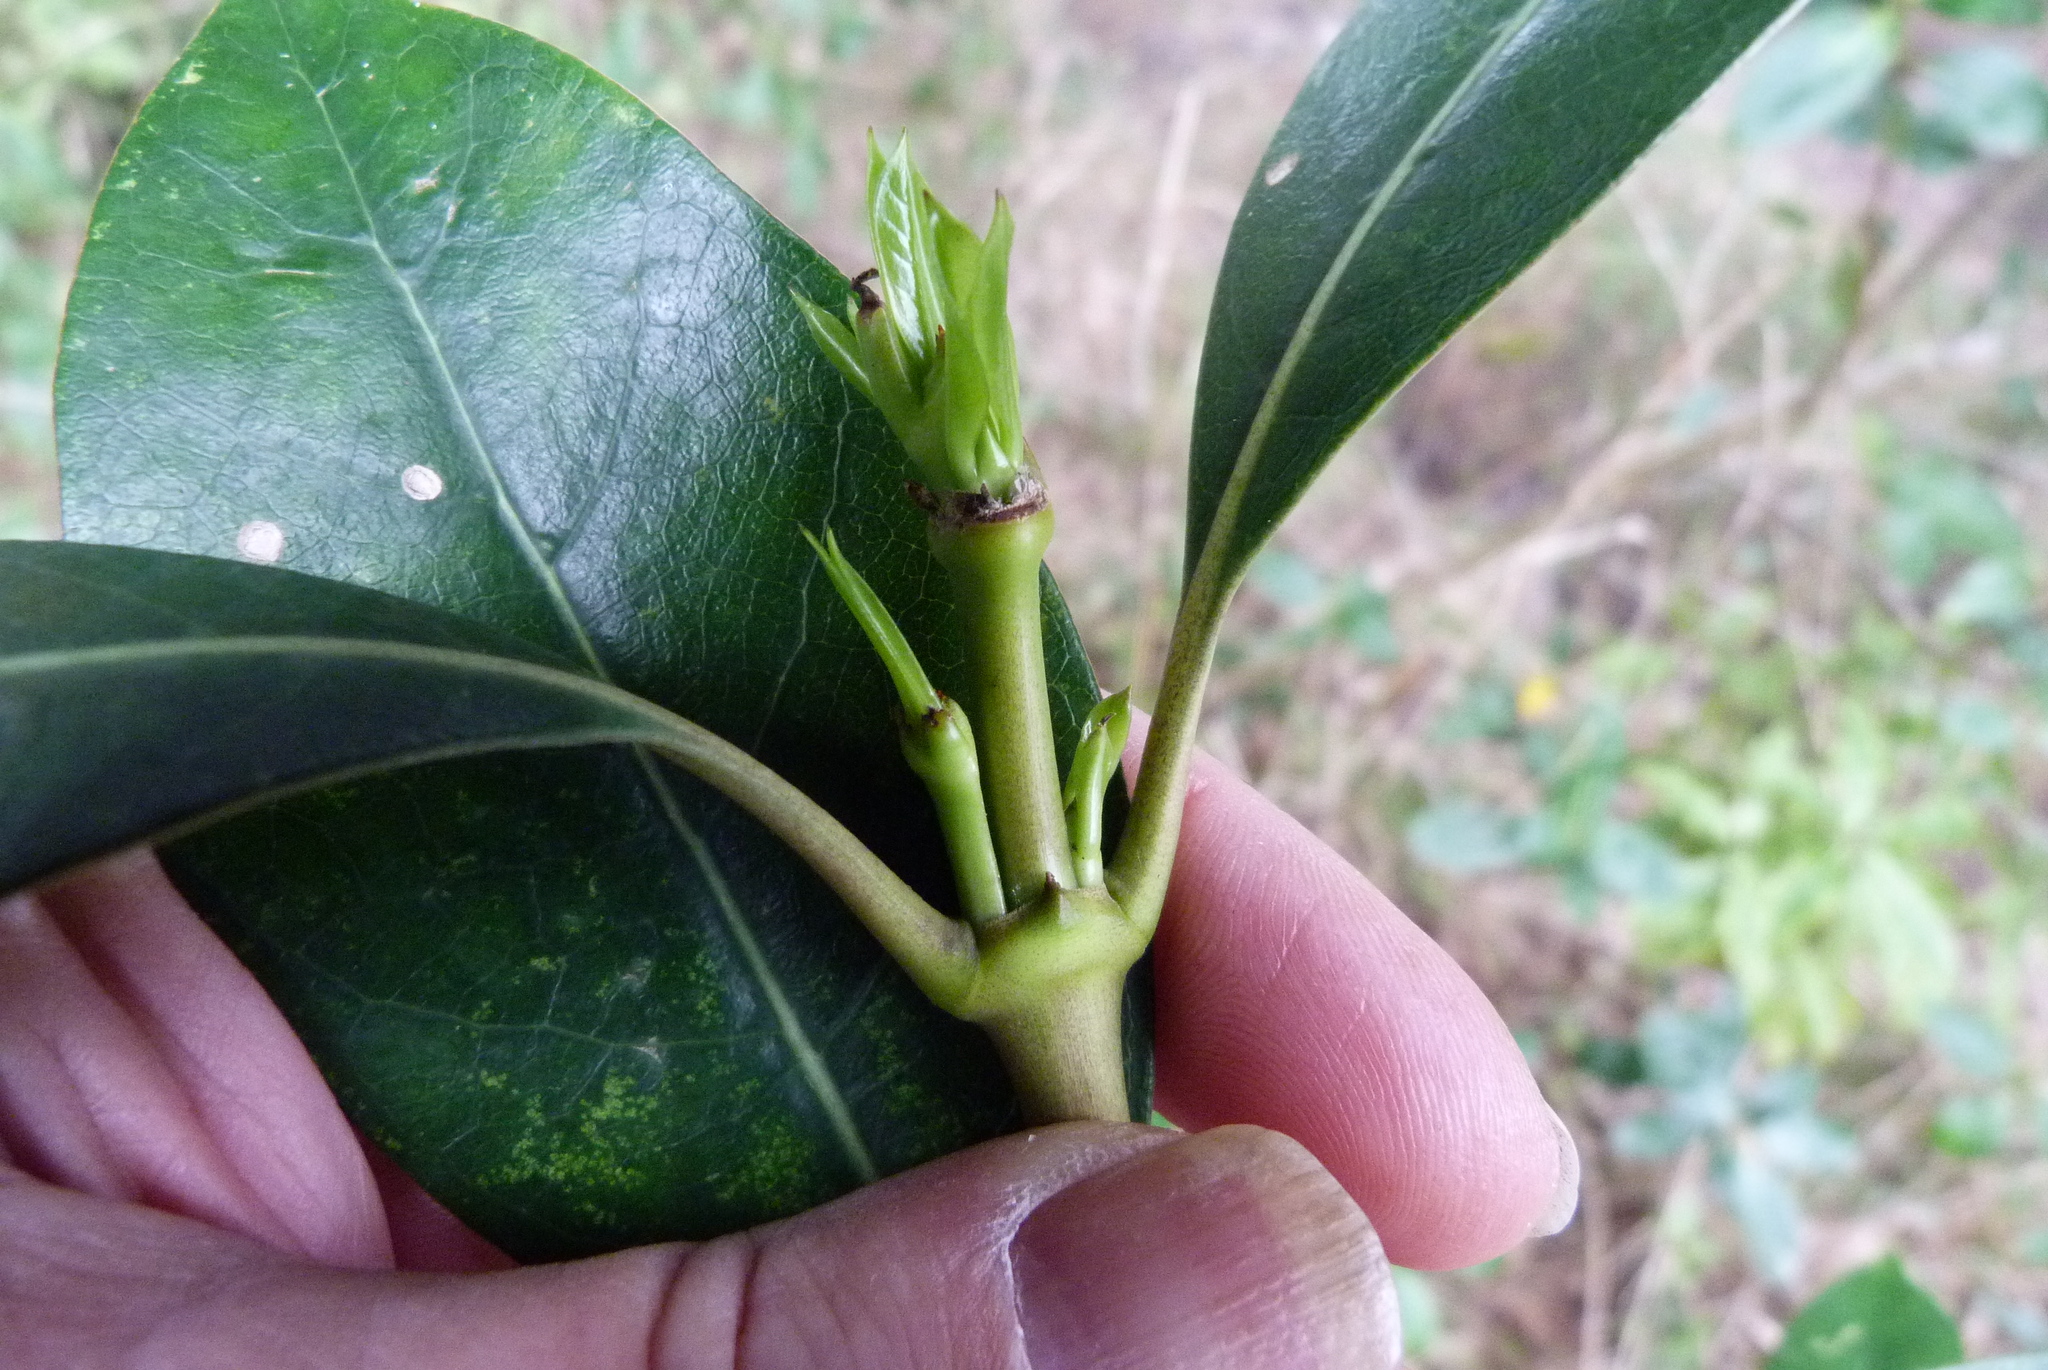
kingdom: Plantae
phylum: Tracheophyta
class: Magnoliopsida
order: Gentianales
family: Rubiaceae
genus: Coprosma
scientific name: Coprosma lucida
